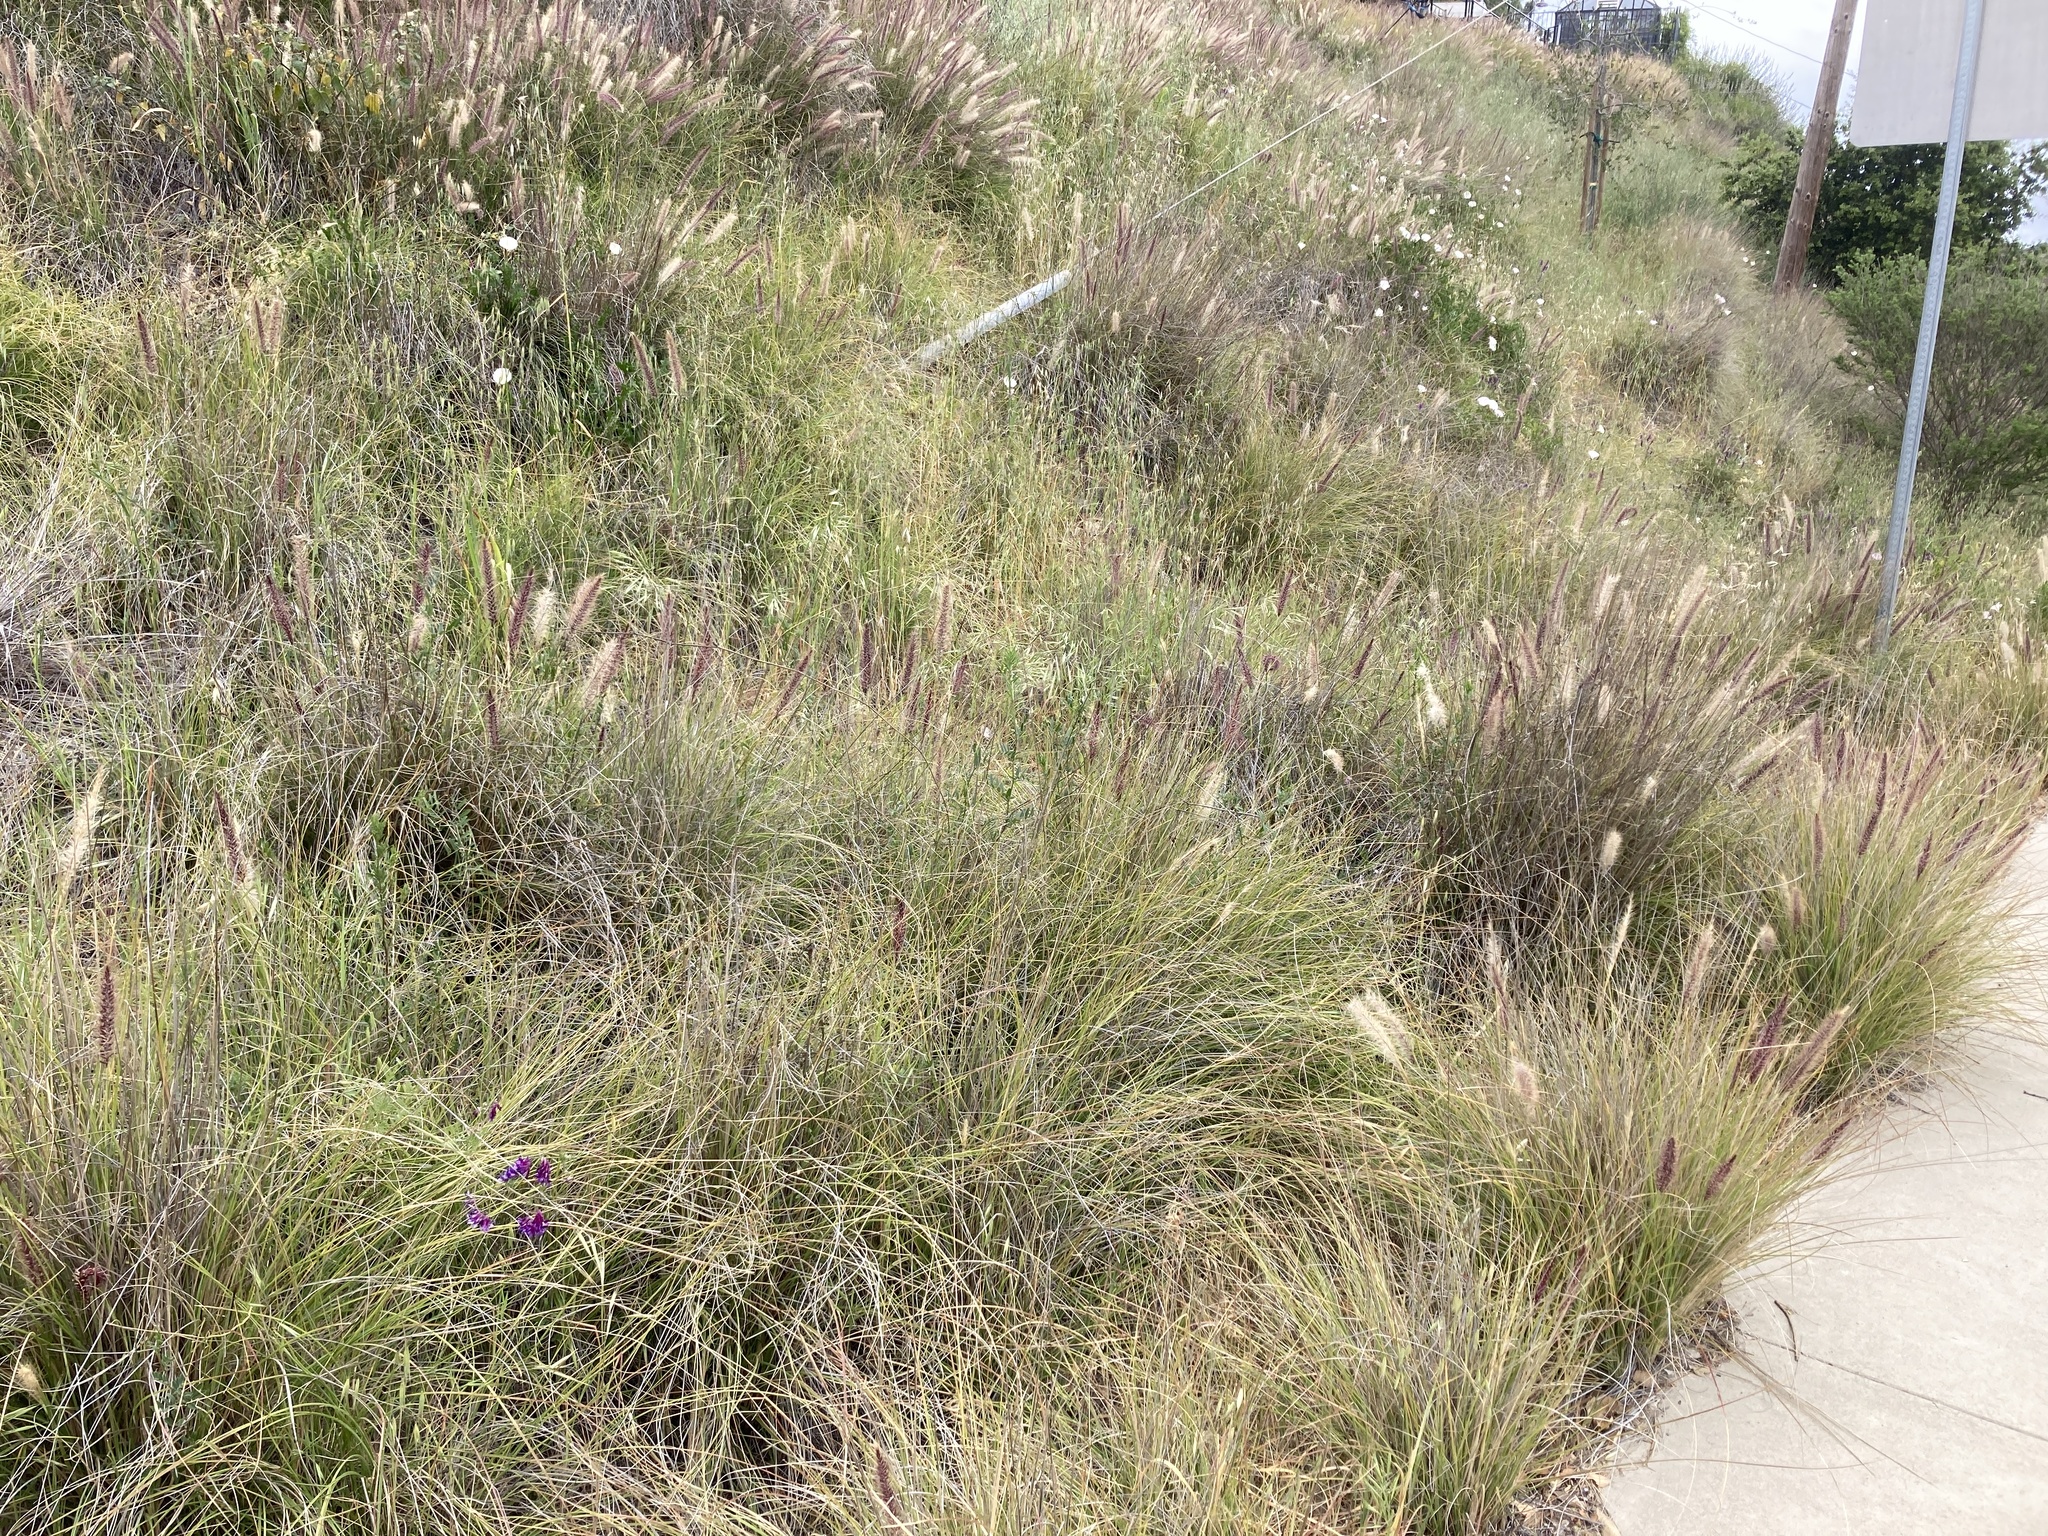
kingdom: Plantae
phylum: Tracheophyta
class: Liliopsida
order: Poales
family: Poaceae
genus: Cenchrus
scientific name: Cenchrus setaceus
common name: Crimson fountaingrass
